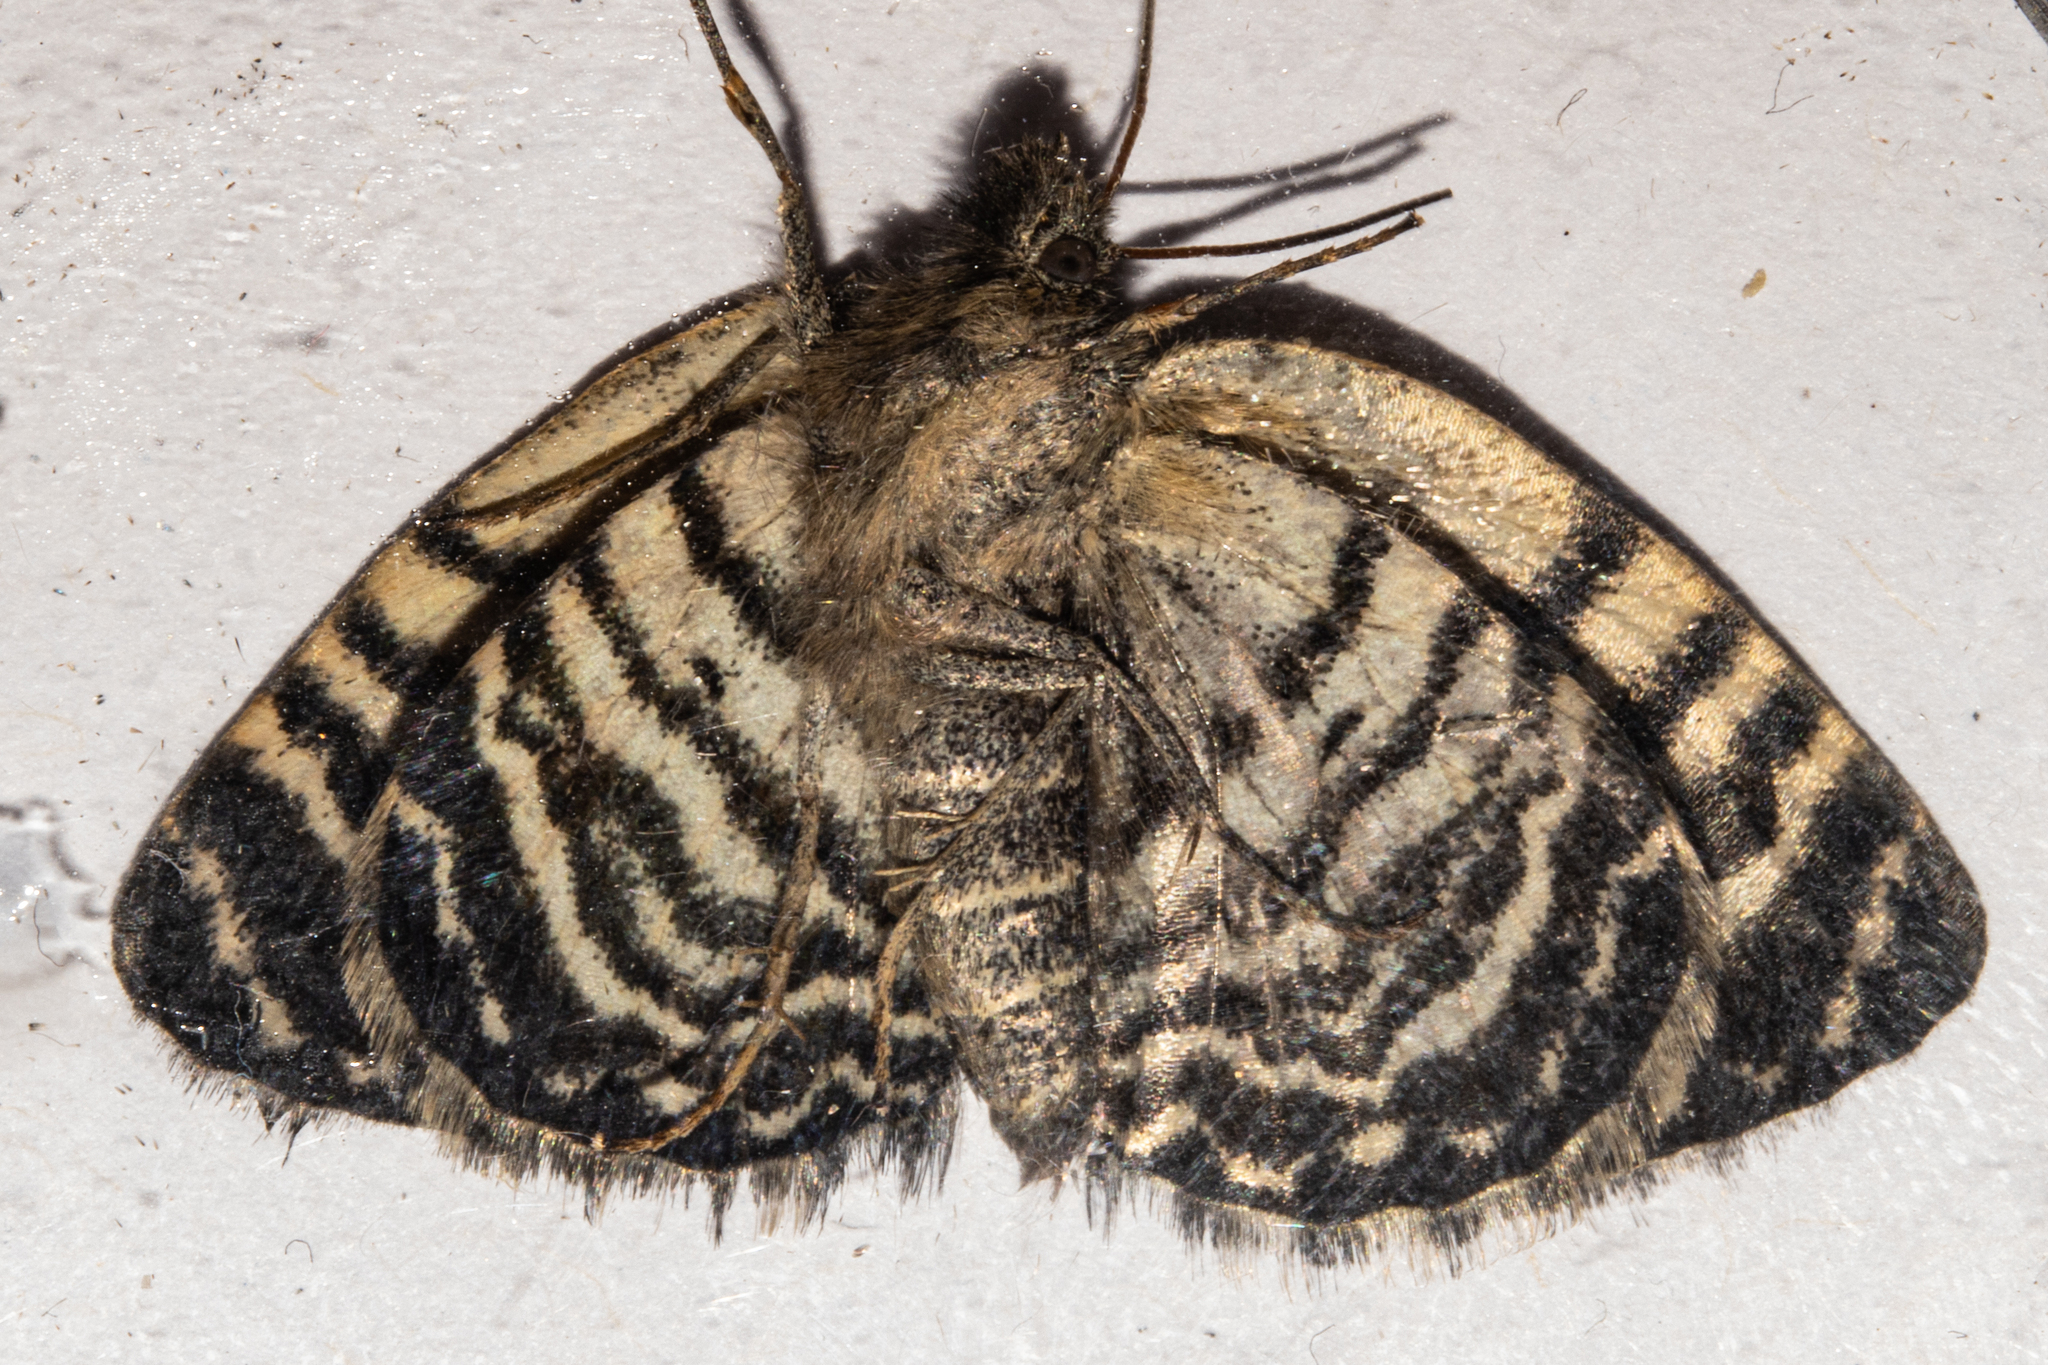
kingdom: Animalia
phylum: Arthropoda
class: Insecta
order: Lepidoptera
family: Geometridae
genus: Dasyuris
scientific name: Dasyuris hectori
